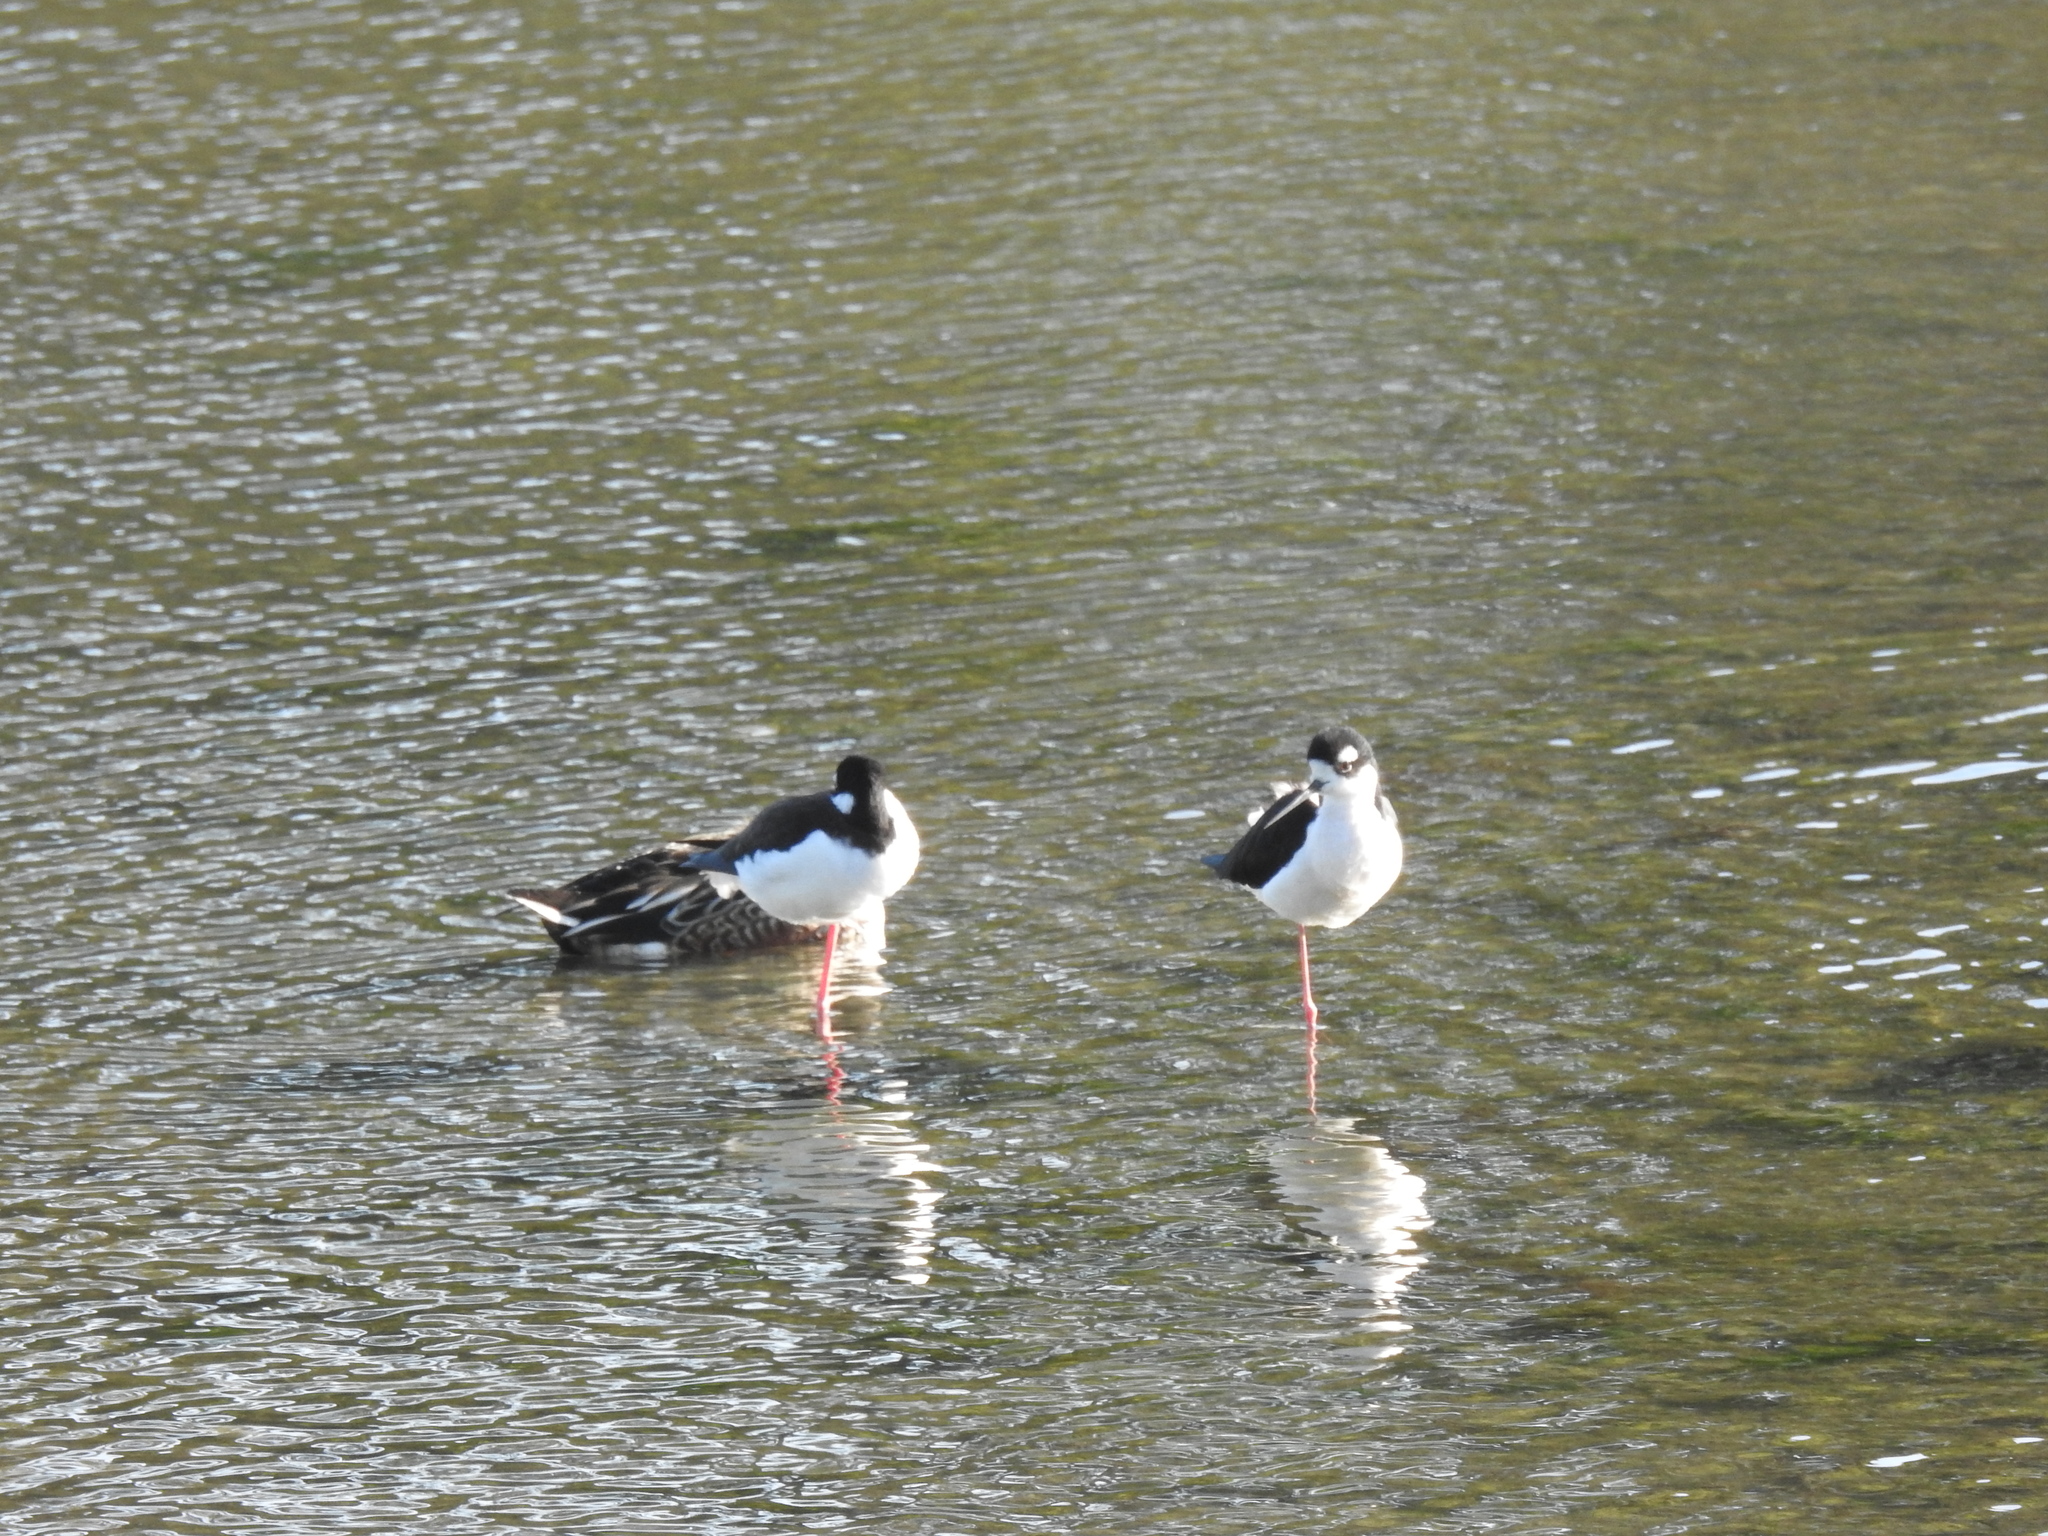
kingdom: Animalia
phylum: Chordata
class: Aves
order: Charadriiformes
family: Recurvirostridae
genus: Himantopus
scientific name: Himantopus mexicanus
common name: Black-necked stilt
